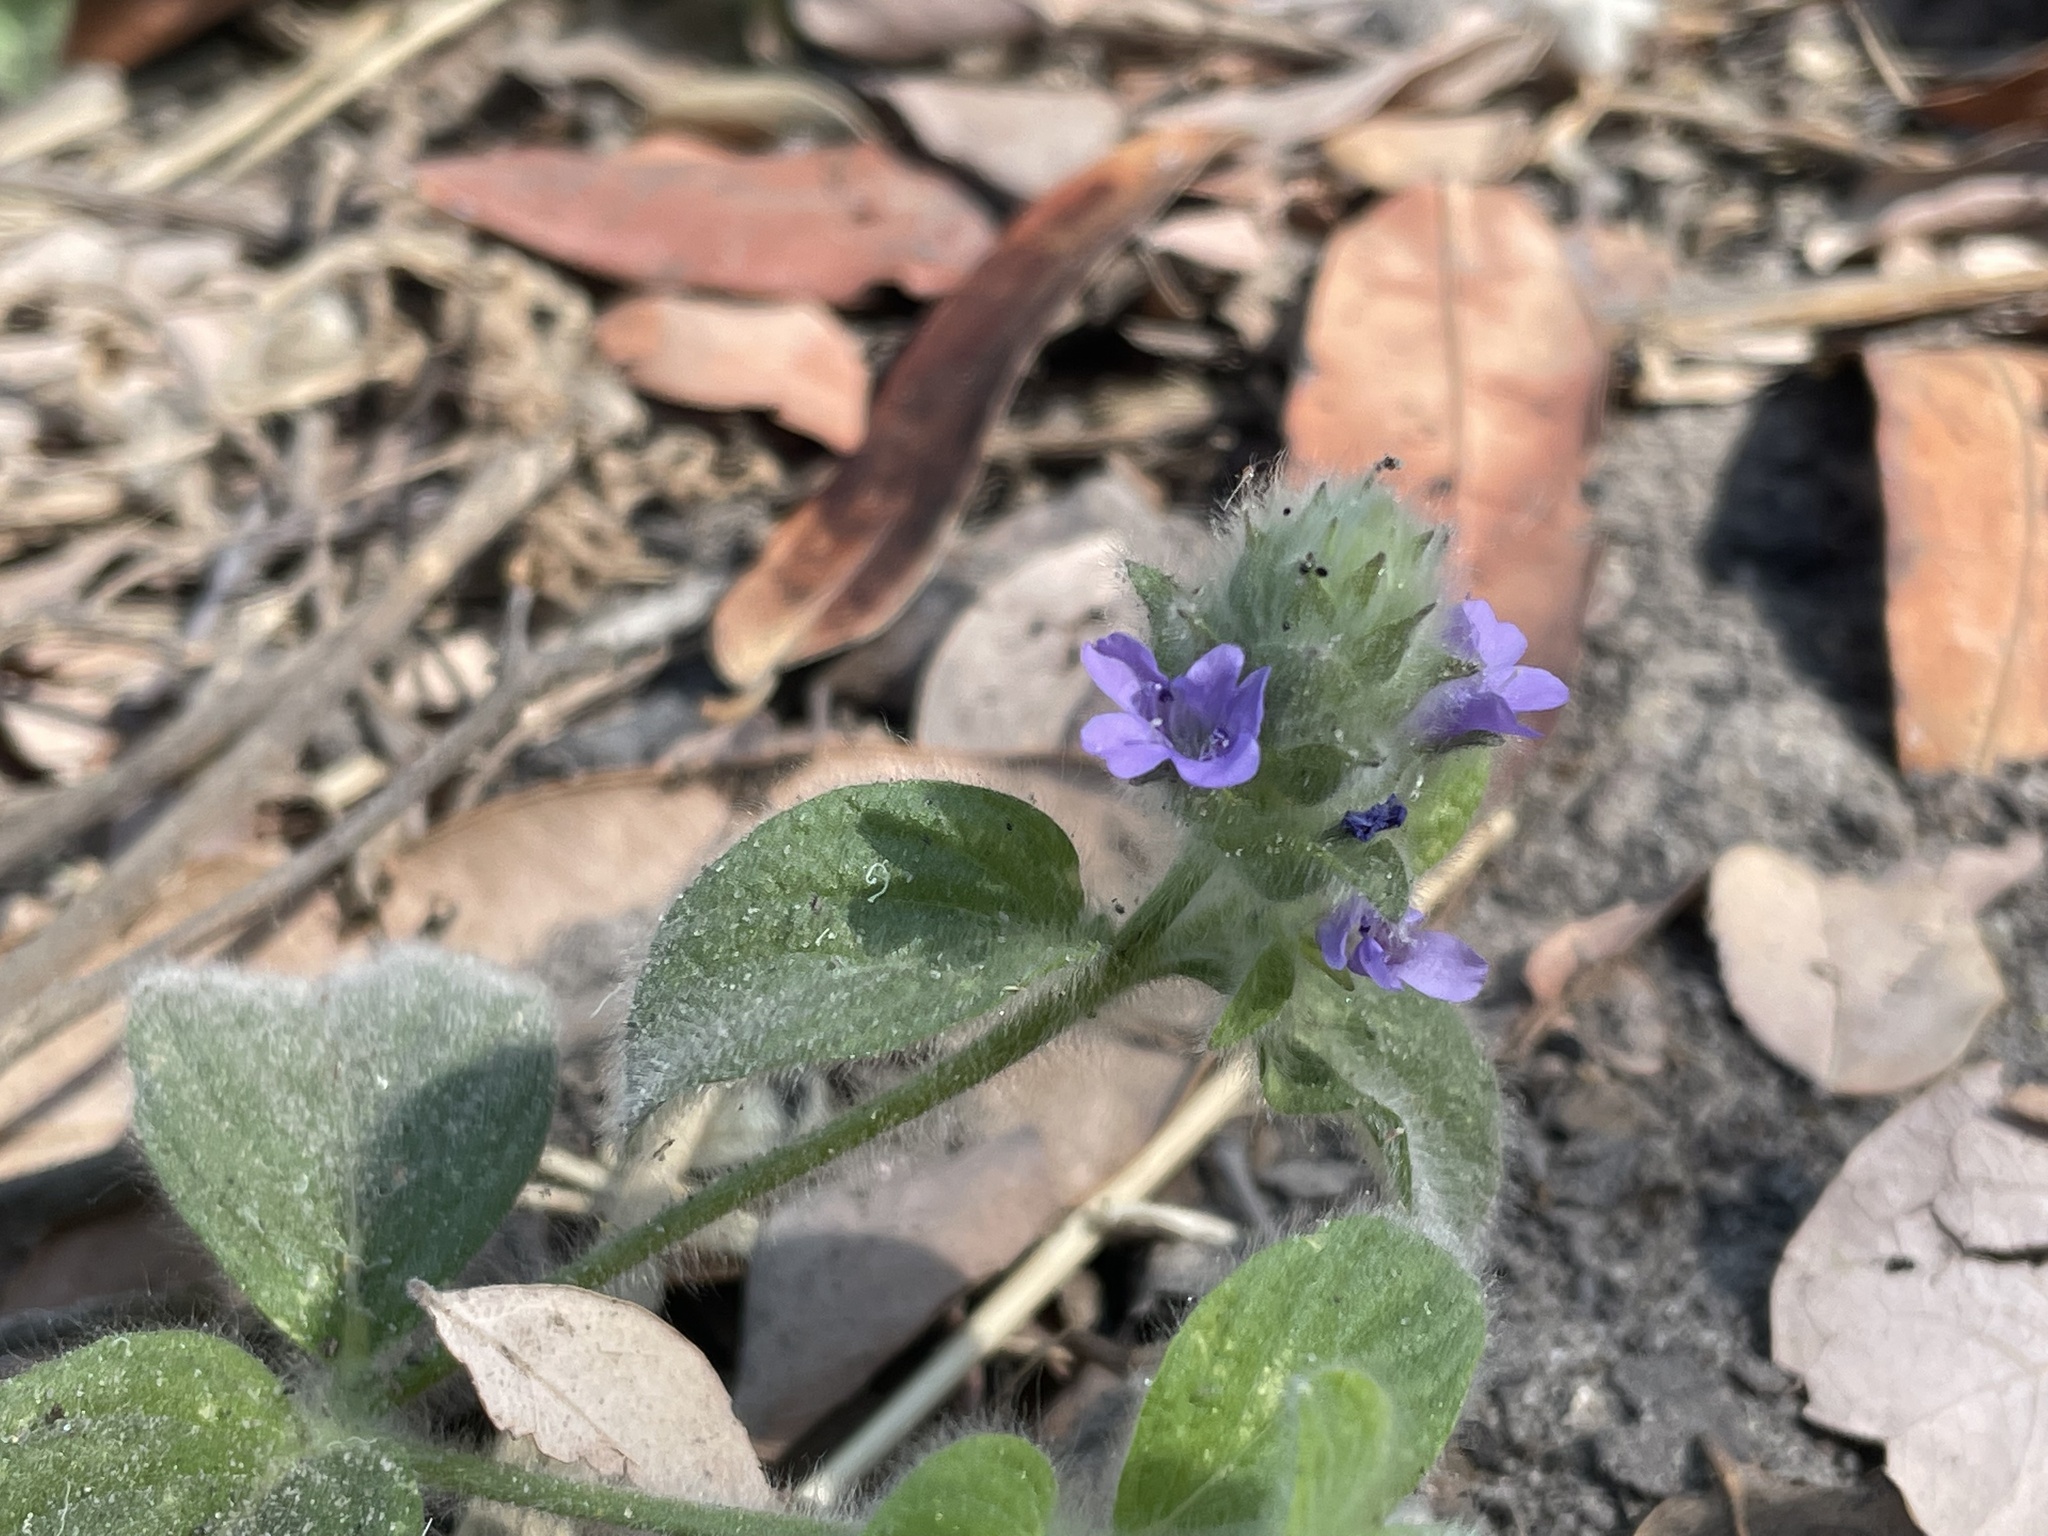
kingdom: Plantae
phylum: Tracheophyta
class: Magnoliopsida
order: Lamiales
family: Acanthaceae
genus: Nelsonia
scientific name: Nelsonia canescens
